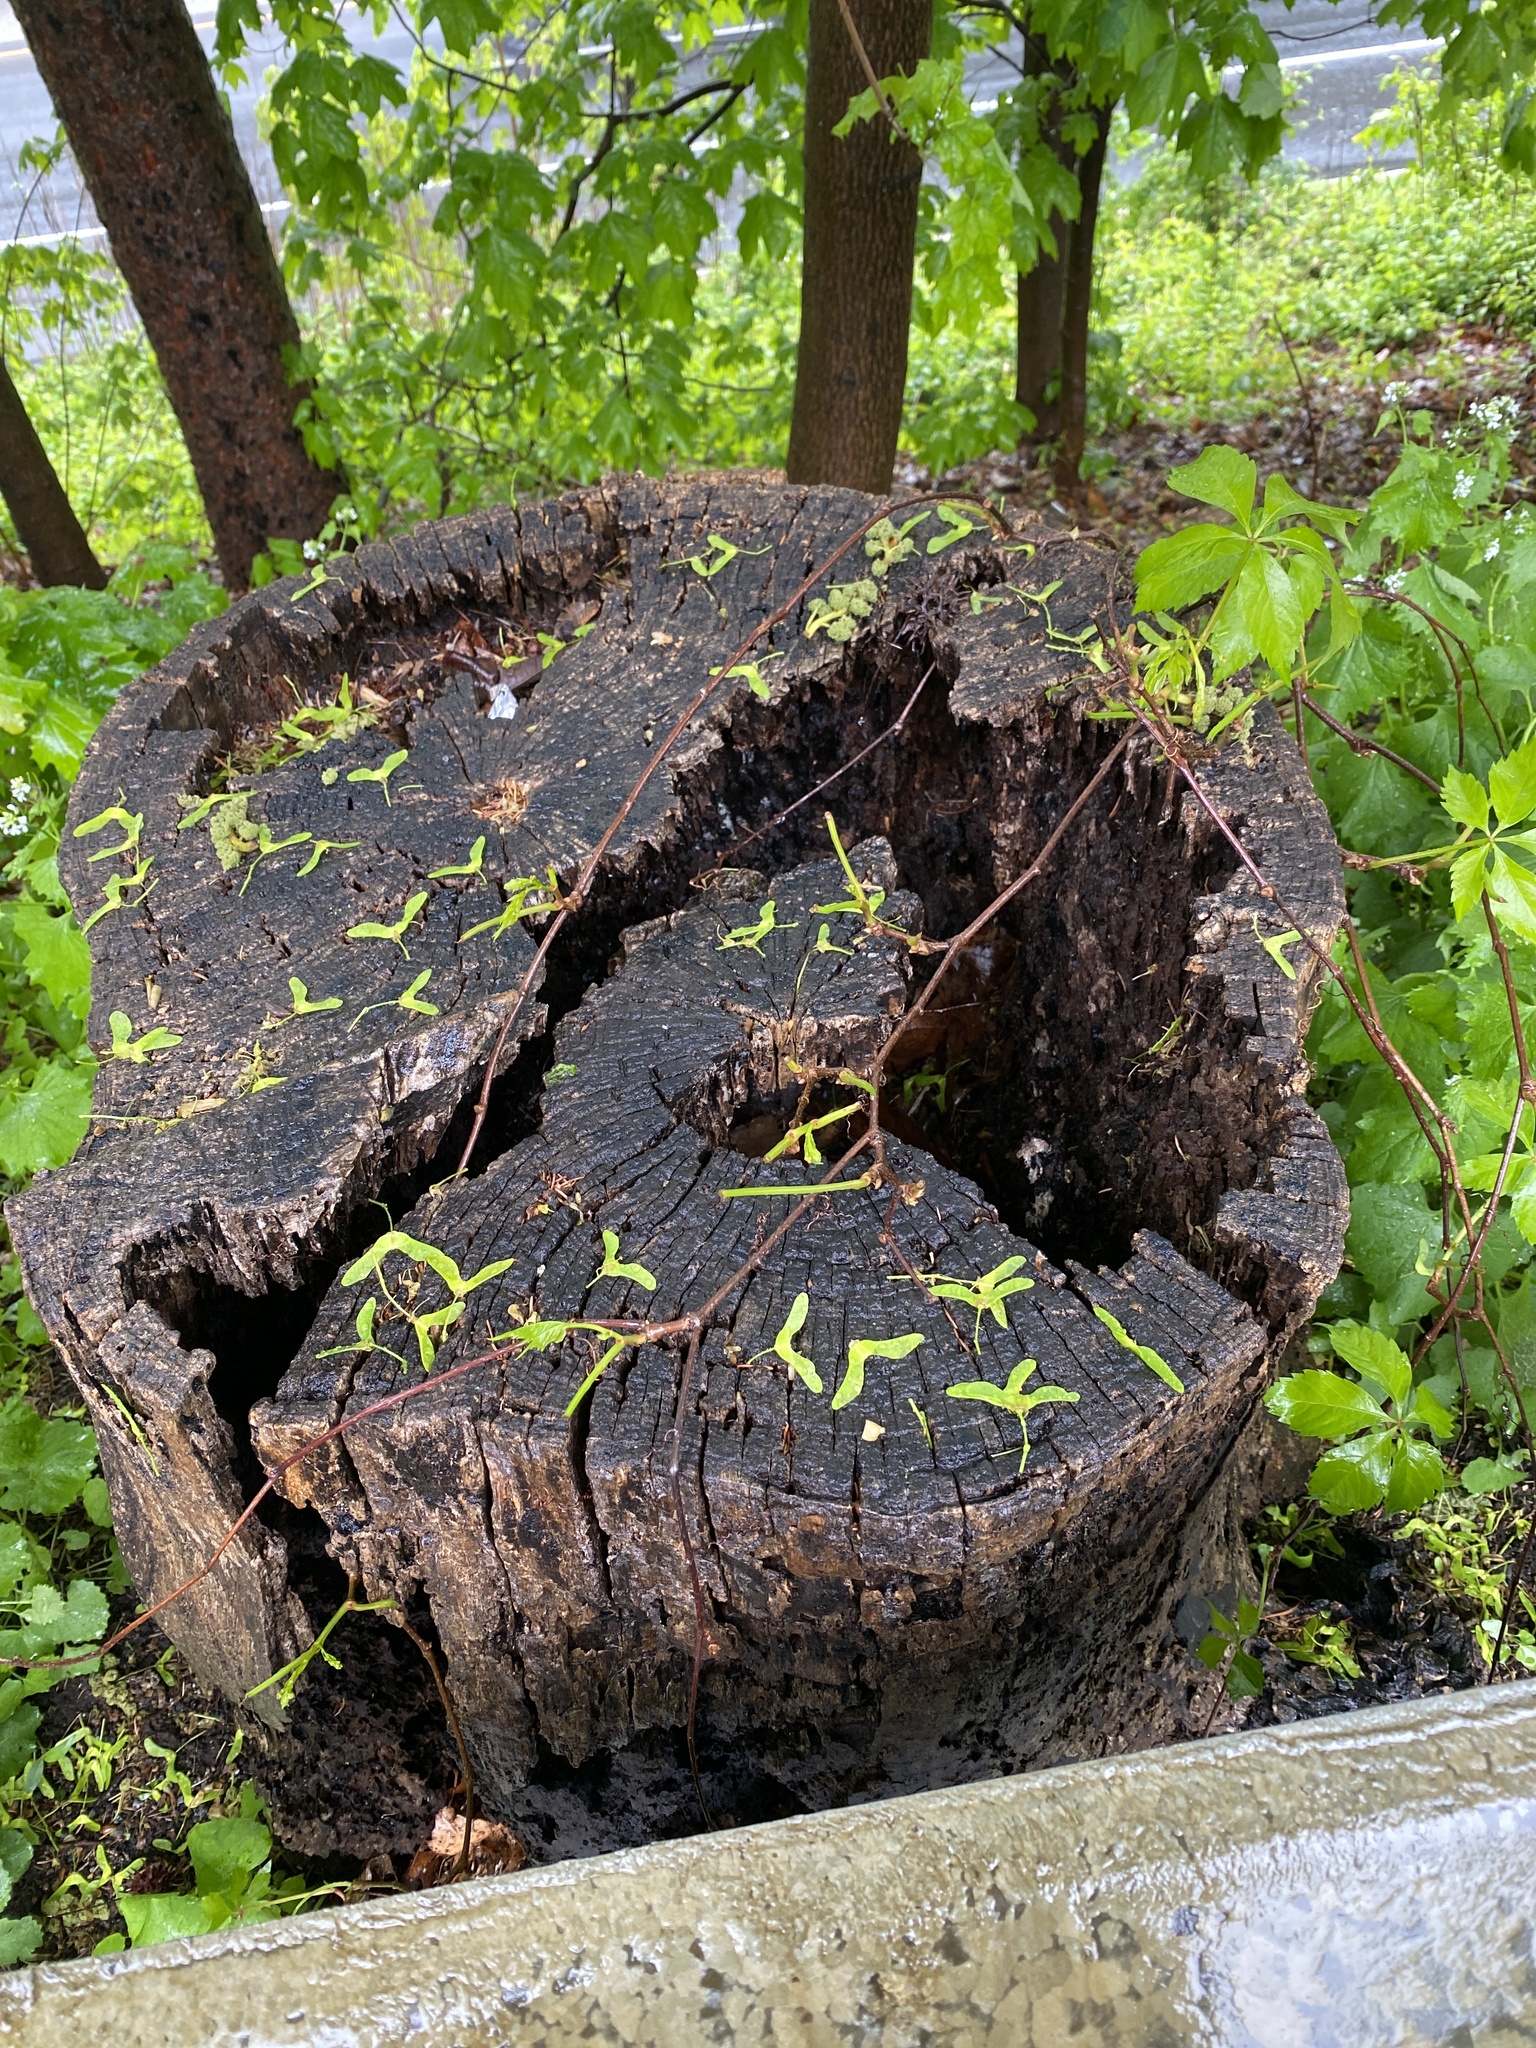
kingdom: Plantae
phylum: Tracheophyta
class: Magnoliopsida
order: Vitales
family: Vitaceae
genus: Parthenocissus
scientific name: Parthenocissus quinquefolia
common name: Virginia-creeper
